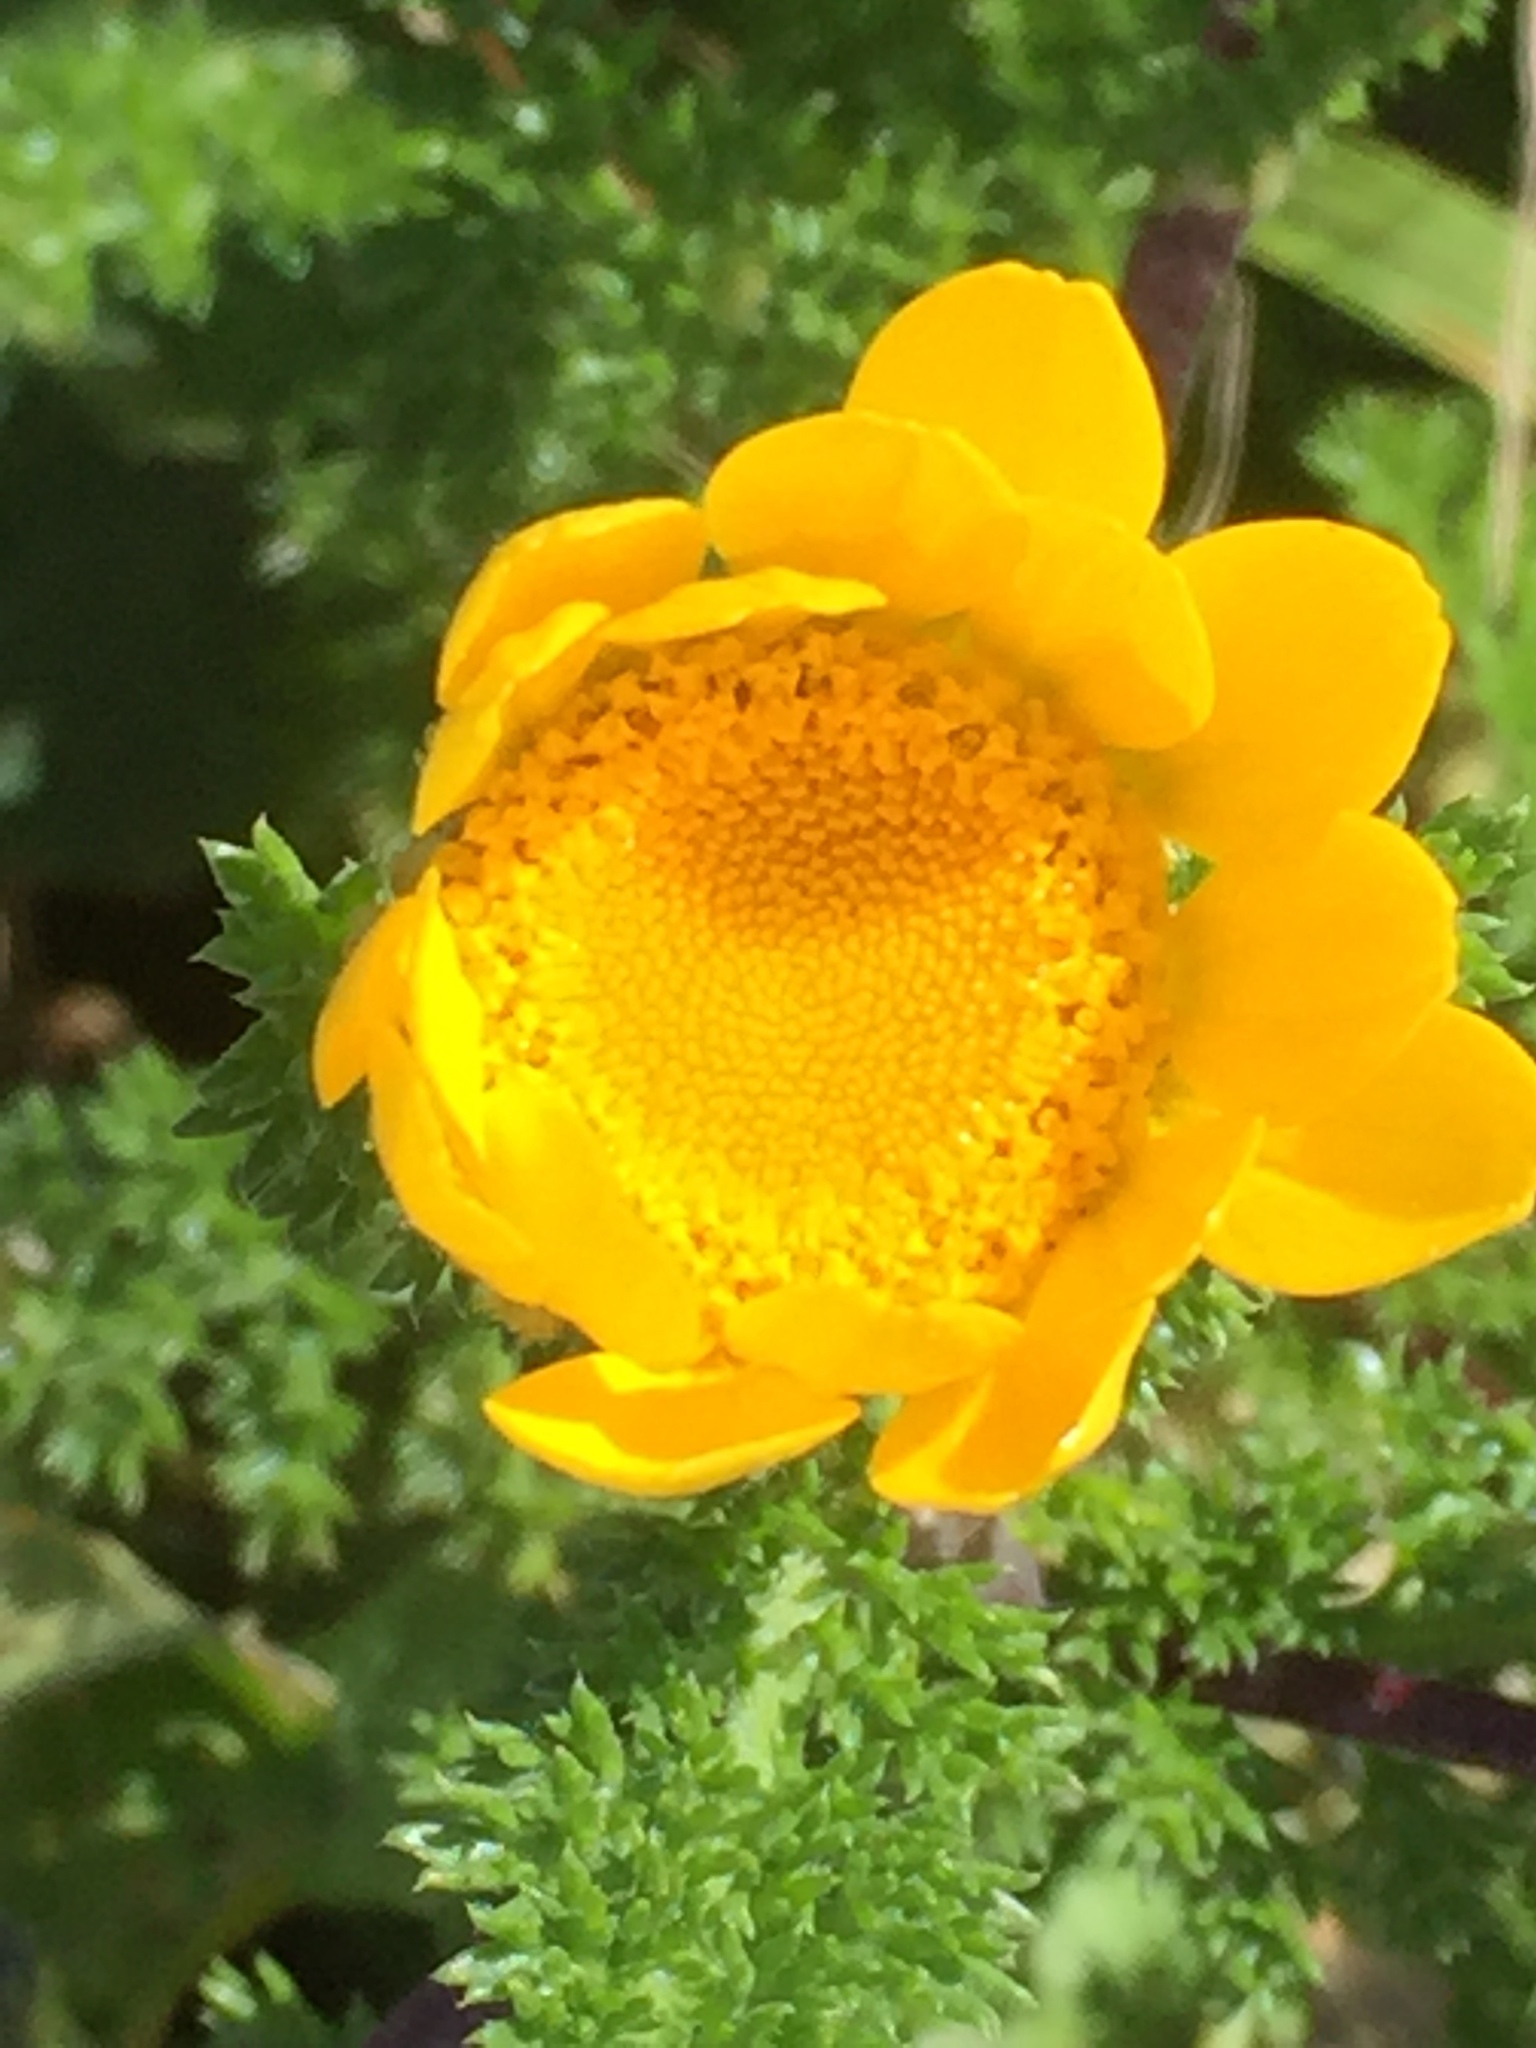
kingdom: Plantae
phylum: Tracheophyta
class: Magnoliopsida
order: Asterales
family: Asteraceae
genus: Glebionis
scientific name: Glebionis coronaria
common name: Crowndaisy
